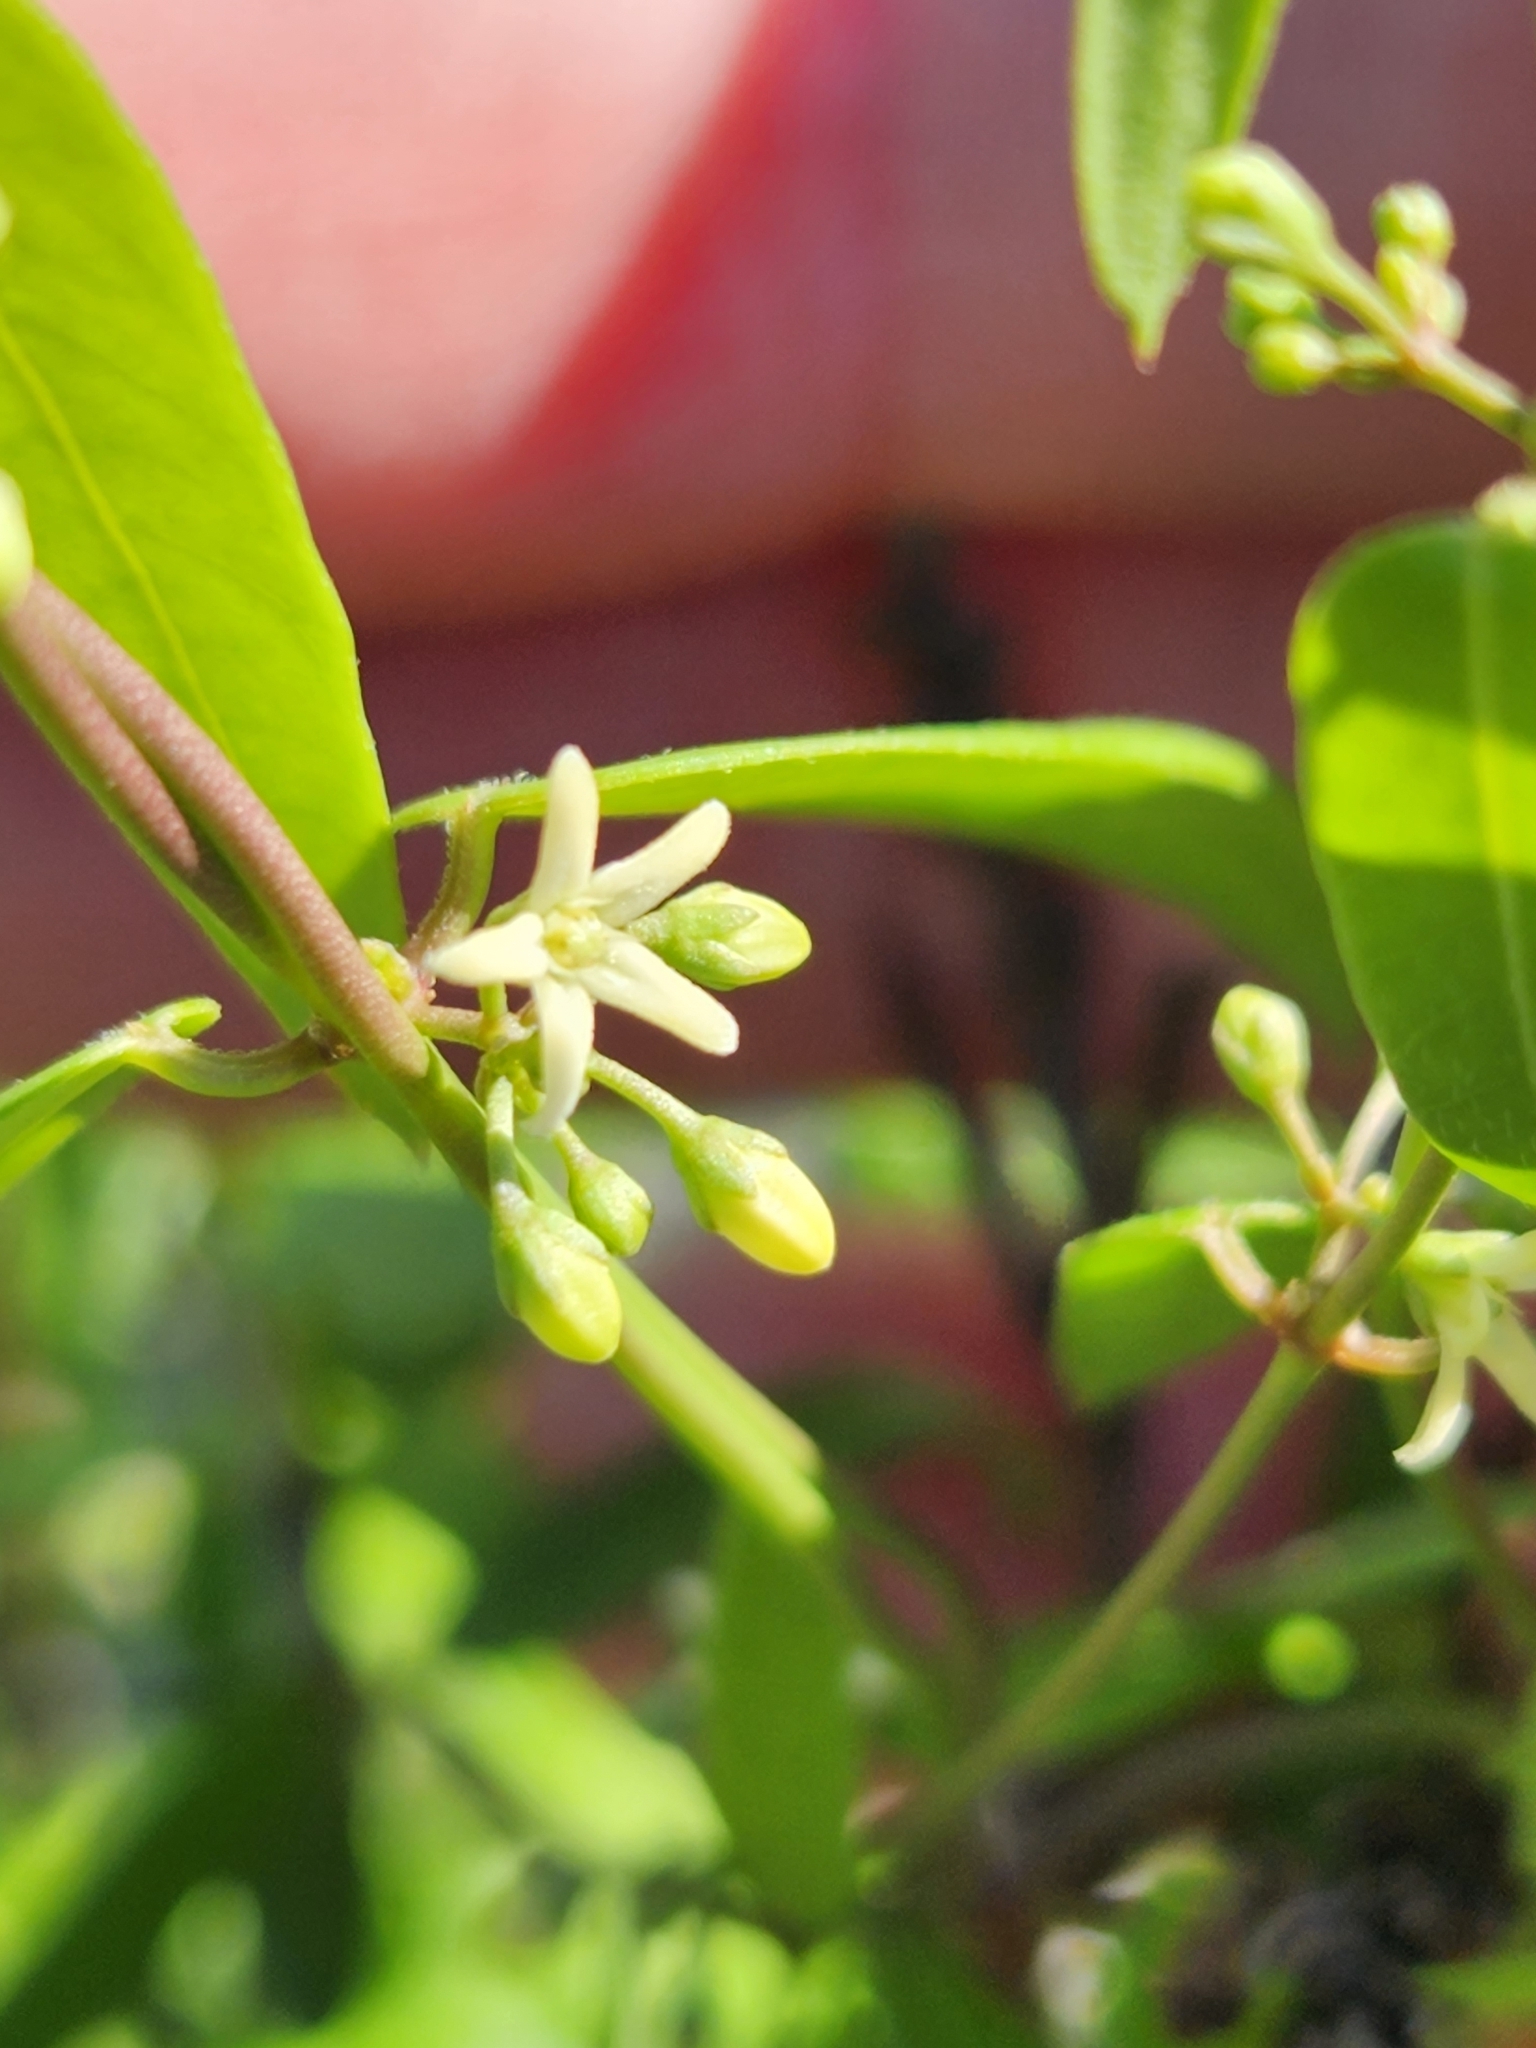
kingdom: Plantae
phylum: Tracheophyta
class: Magnoliopsida
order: Gentianales
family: Apocynaceae
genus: Metastelma
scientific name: Metastelma palmeri
